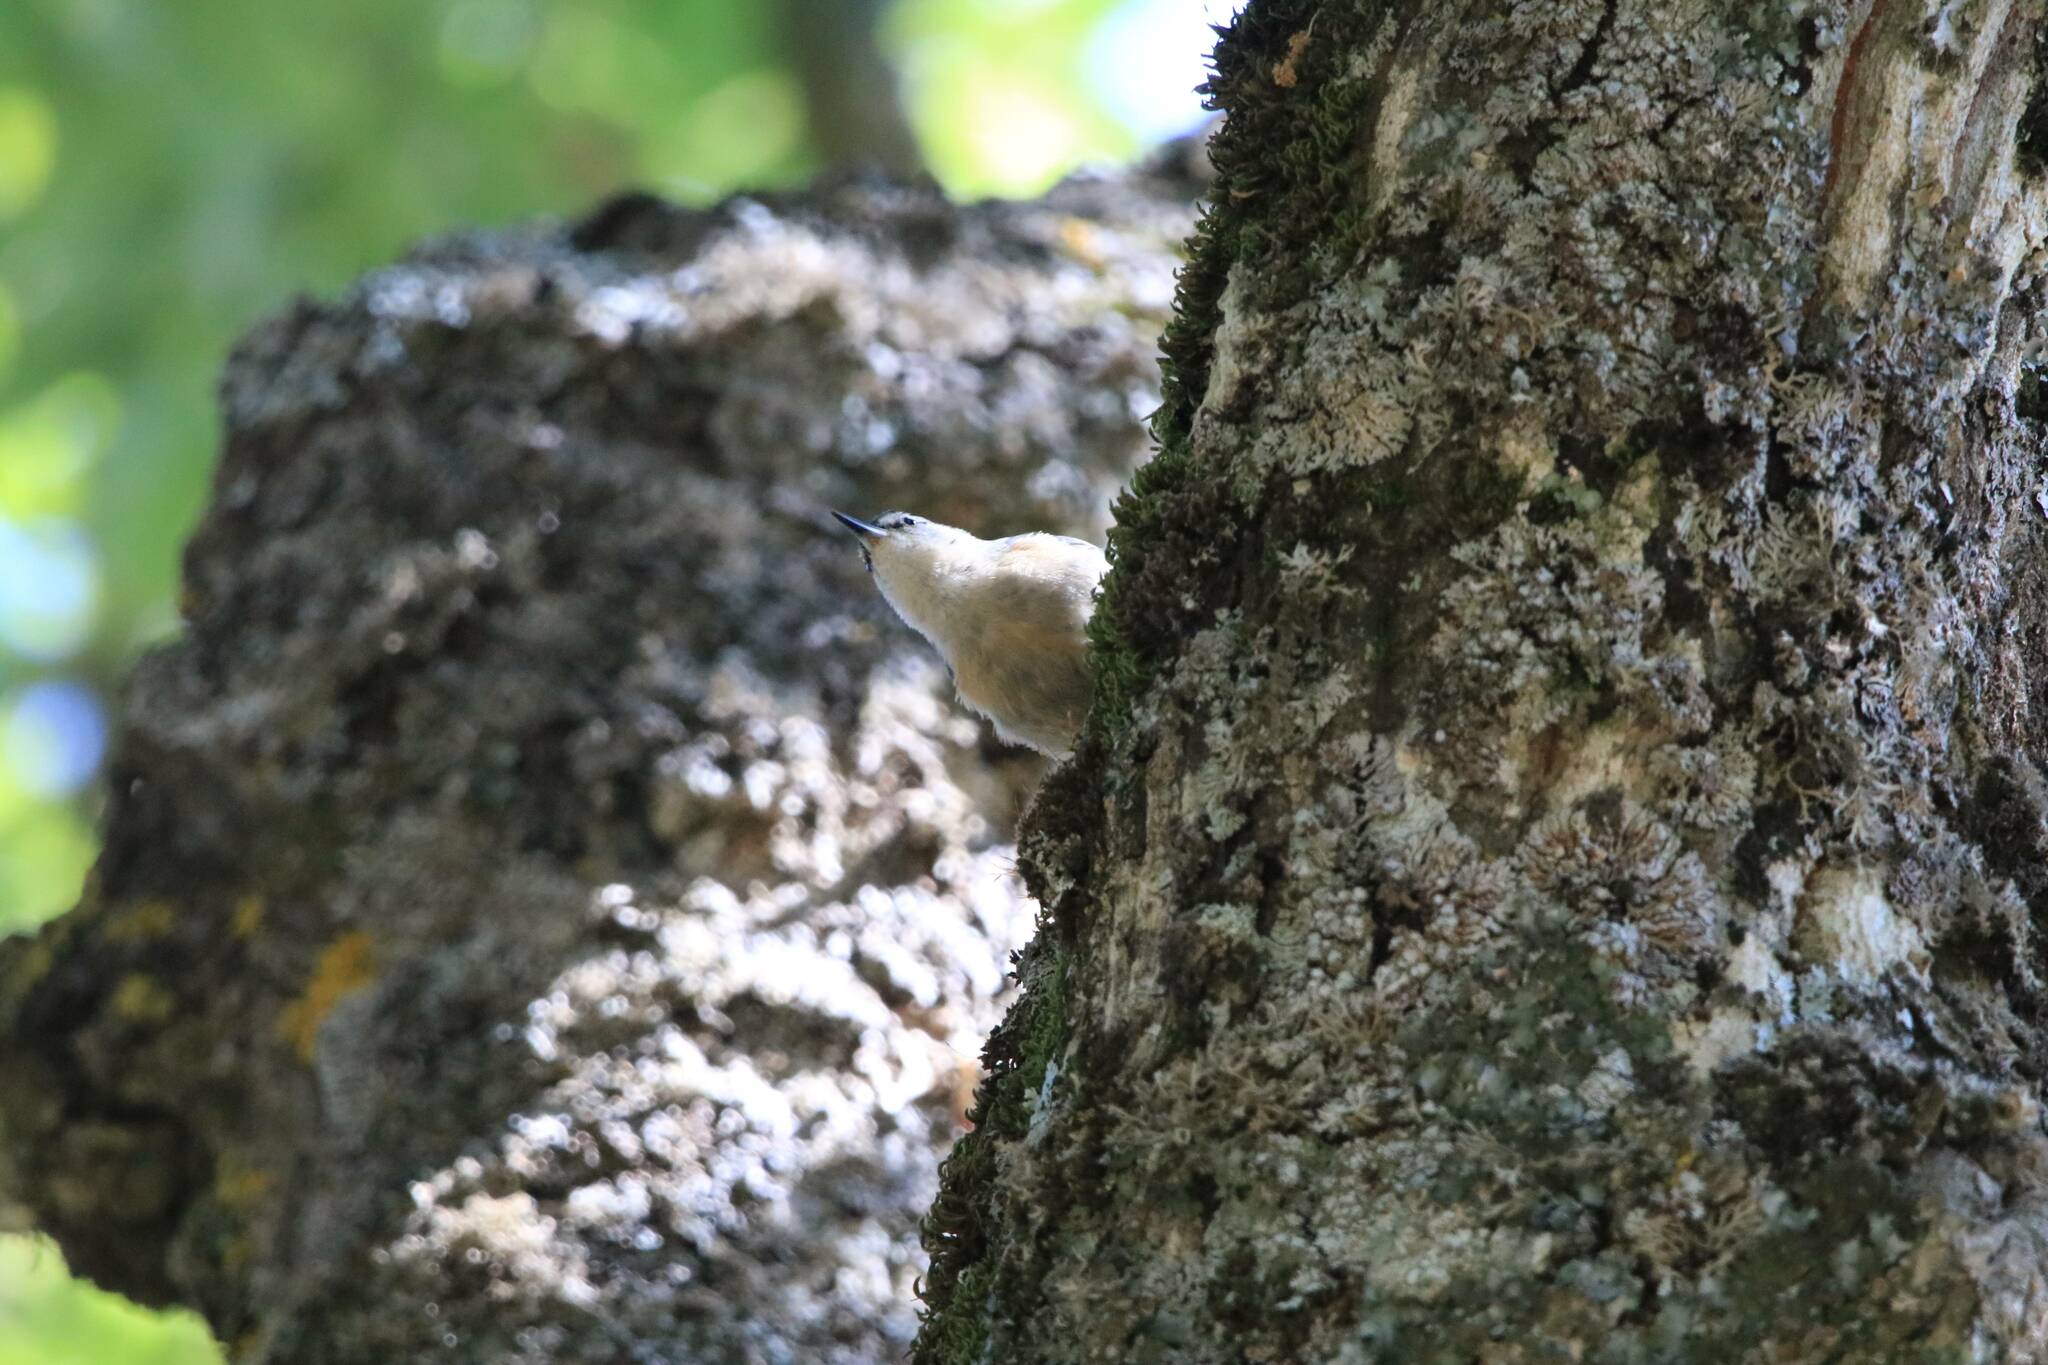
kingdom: Animalia
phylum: Chordata
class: Aves
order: Passeriformes
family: Sittidae
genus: Sitta
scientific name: Sitta ledanti
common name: Algerian nuthatch
